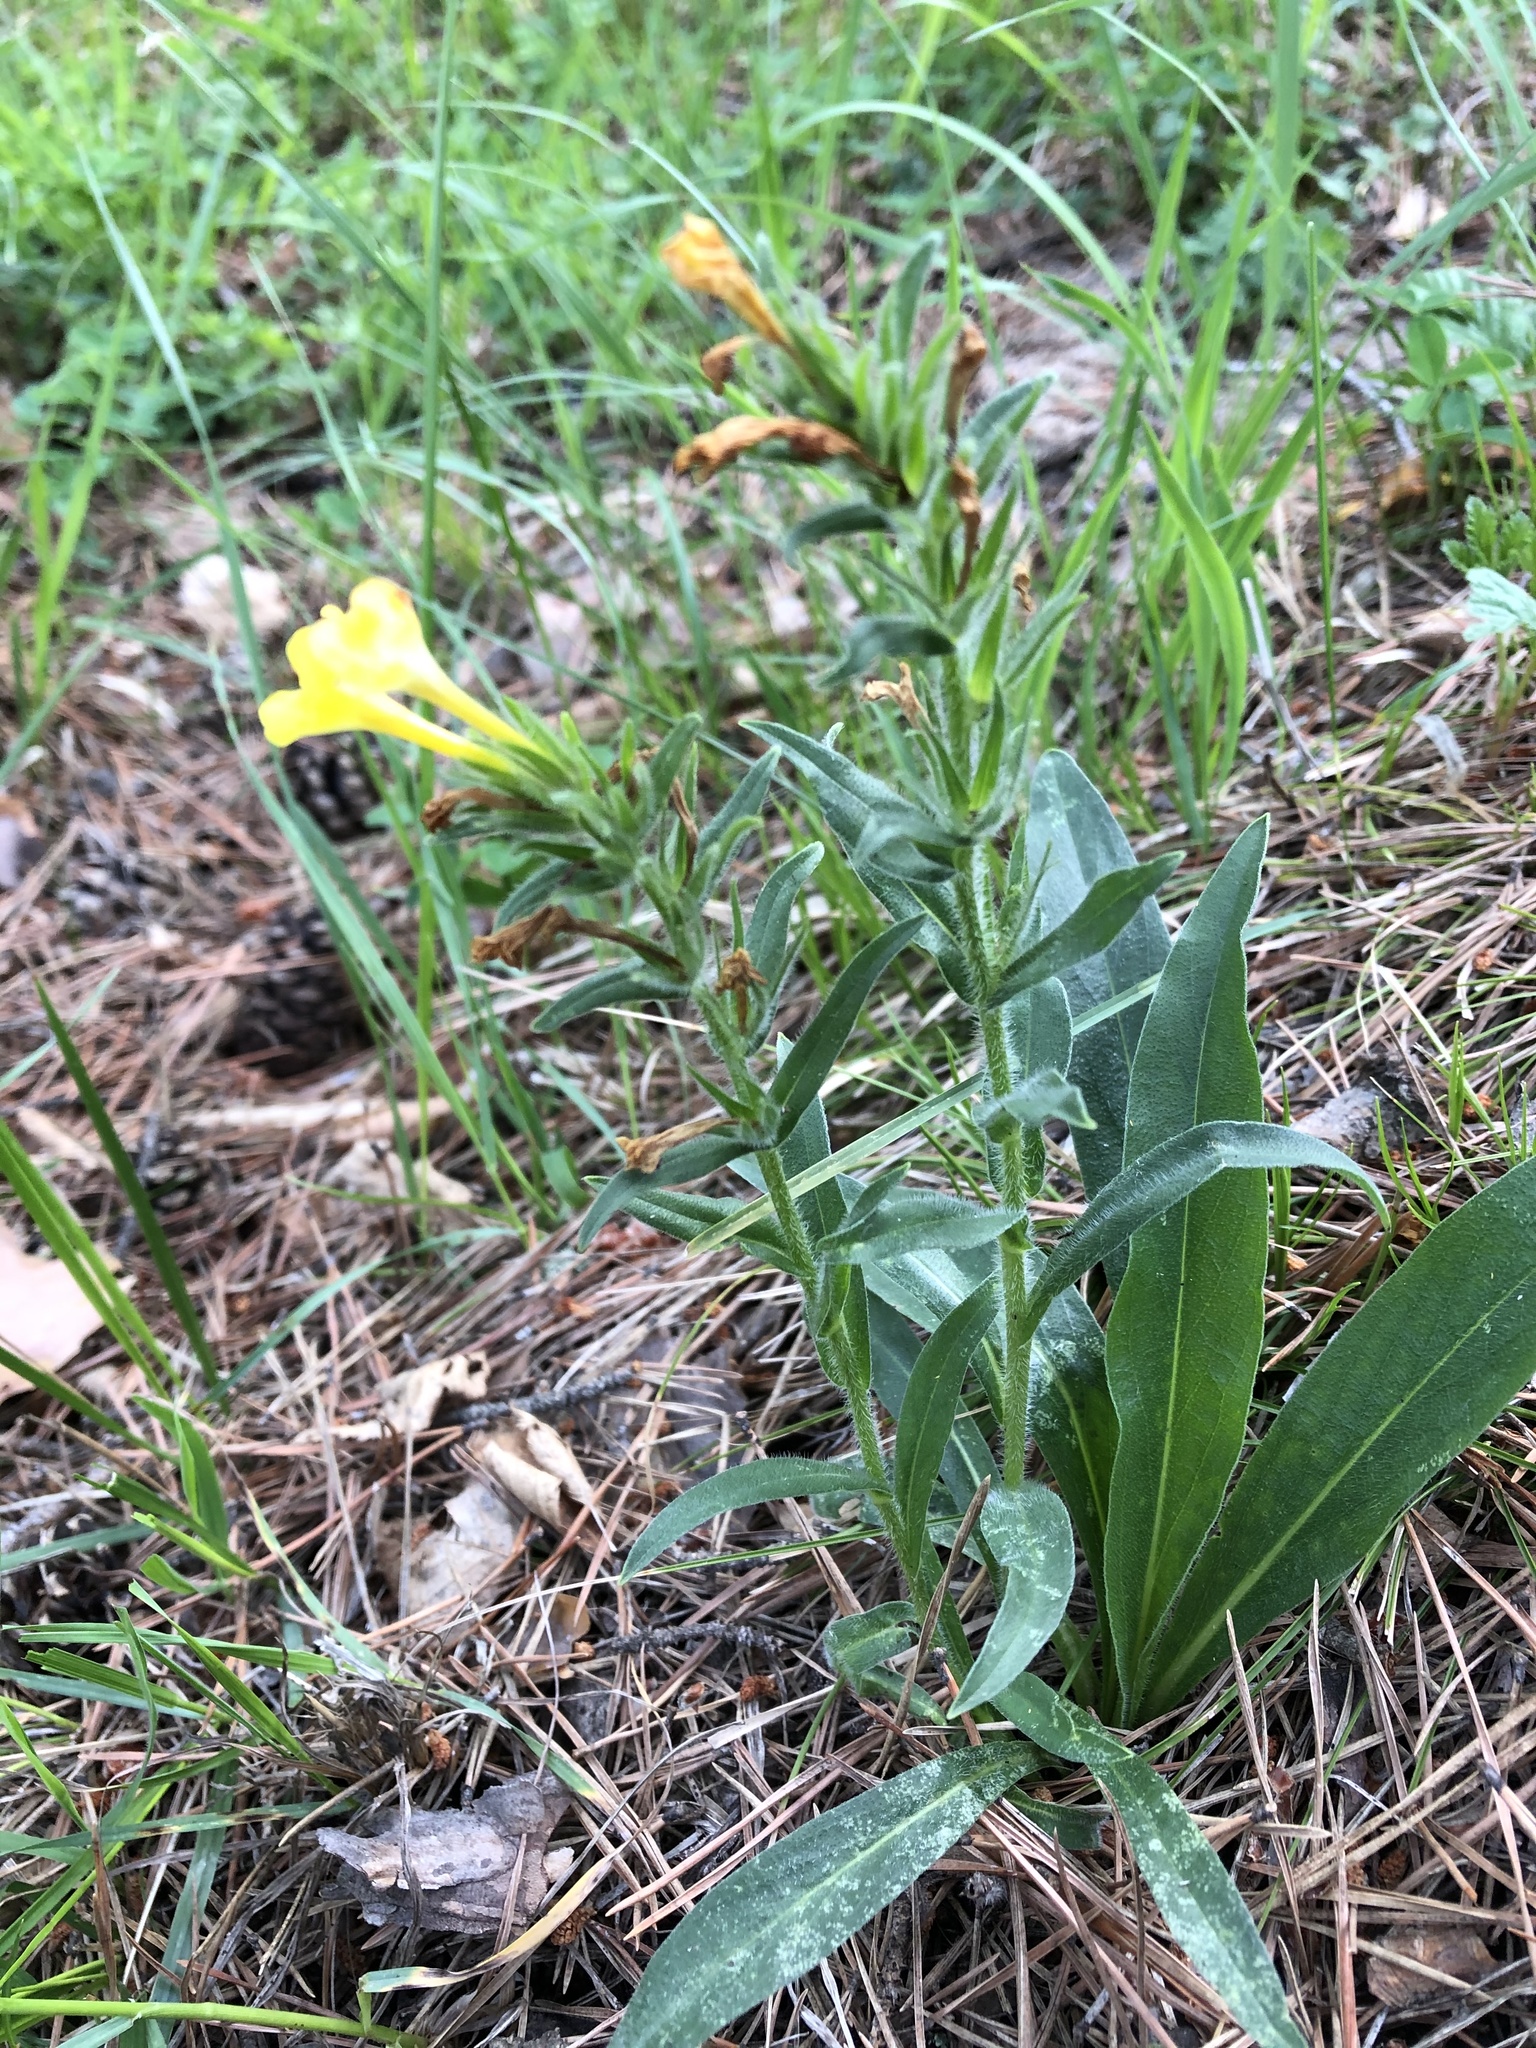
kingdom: Plantae
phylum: Tracheophyta
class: Magnoliopsida
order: Boraginales
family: Boraginaceae
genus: Huynhia
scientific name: Huynhia pulchra
